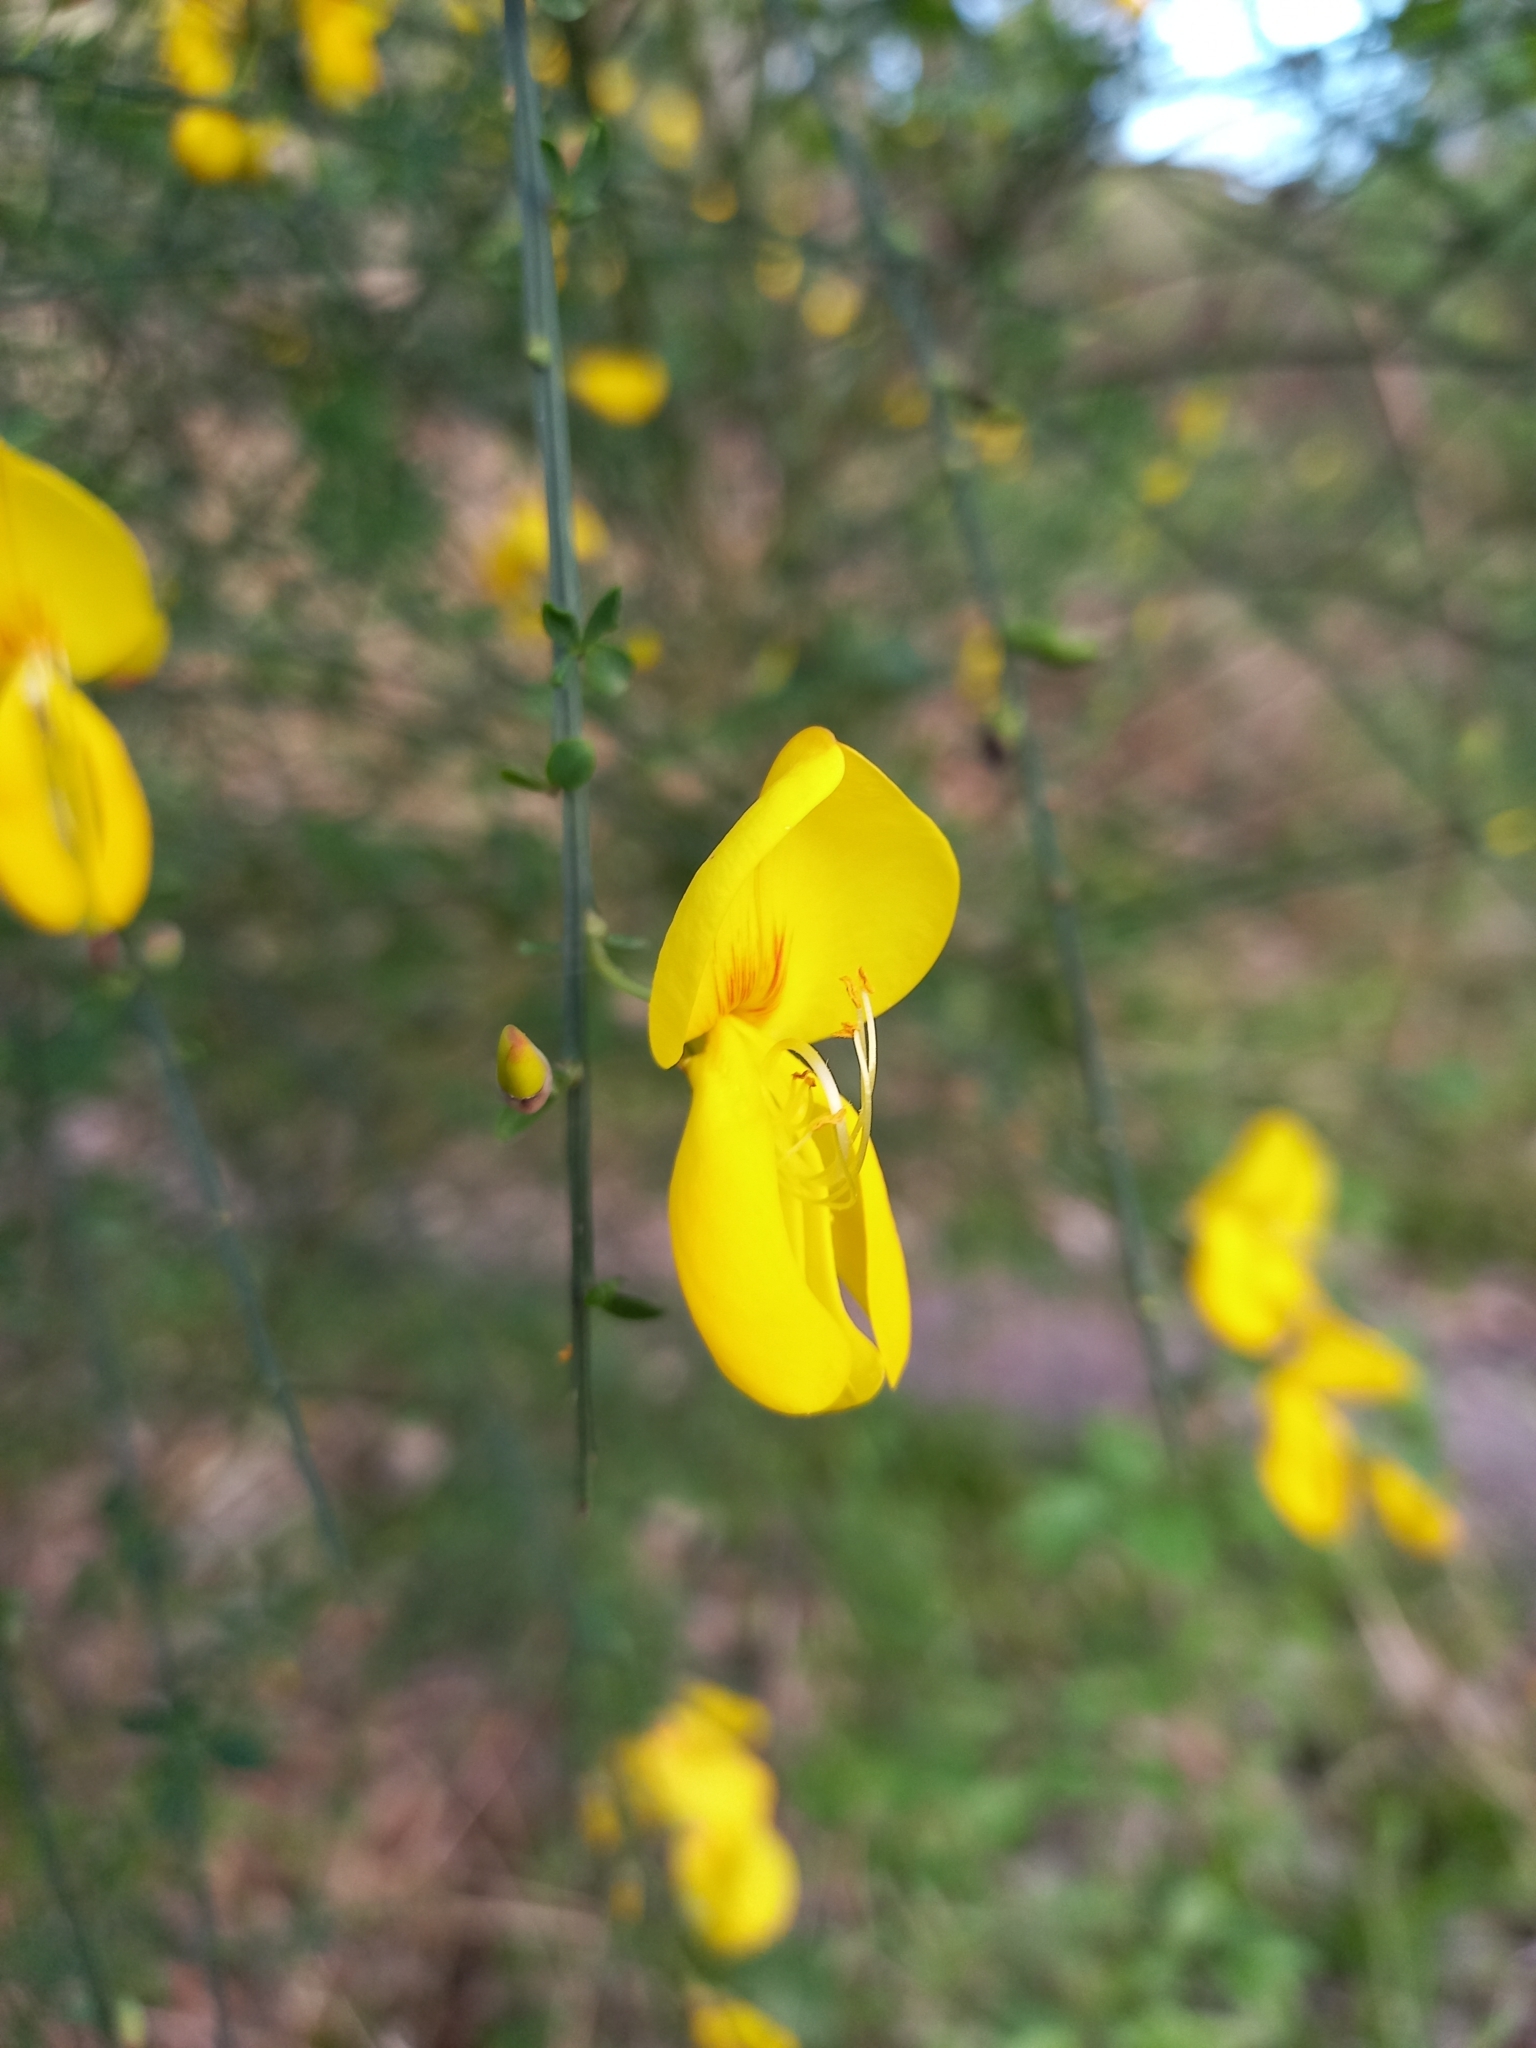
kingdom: Plantae
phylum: Tracheophyta
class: Magnoliopsida
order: Fabales
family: Fabaceae
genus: Cytisus
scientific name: Cytisus scoparius
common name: Scotch broom
